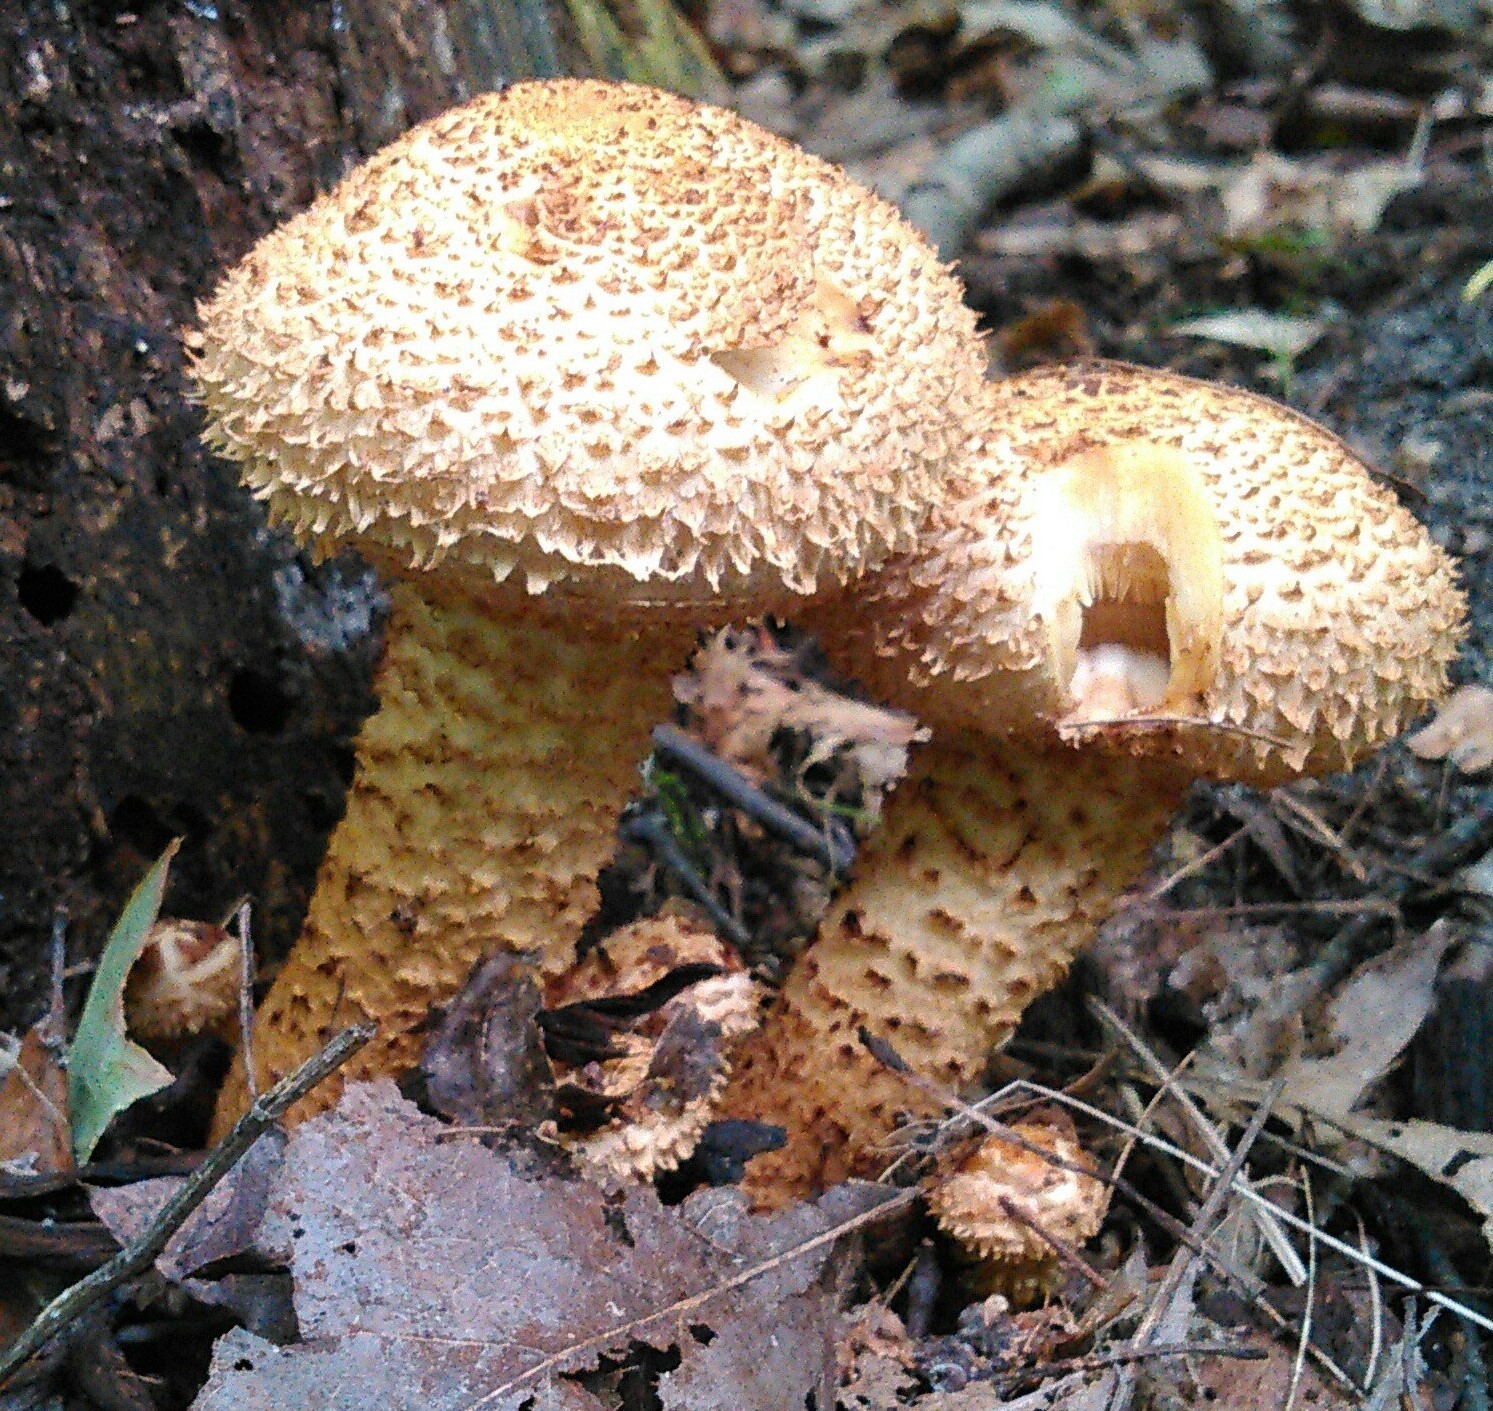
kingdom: Fungi
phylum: Basidiomycota
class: Agaricomycetes
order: Agaricales
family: Strophariaceae
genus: Pholiota
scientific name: Pholiota squarrosa
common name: Shaggy pholiota
